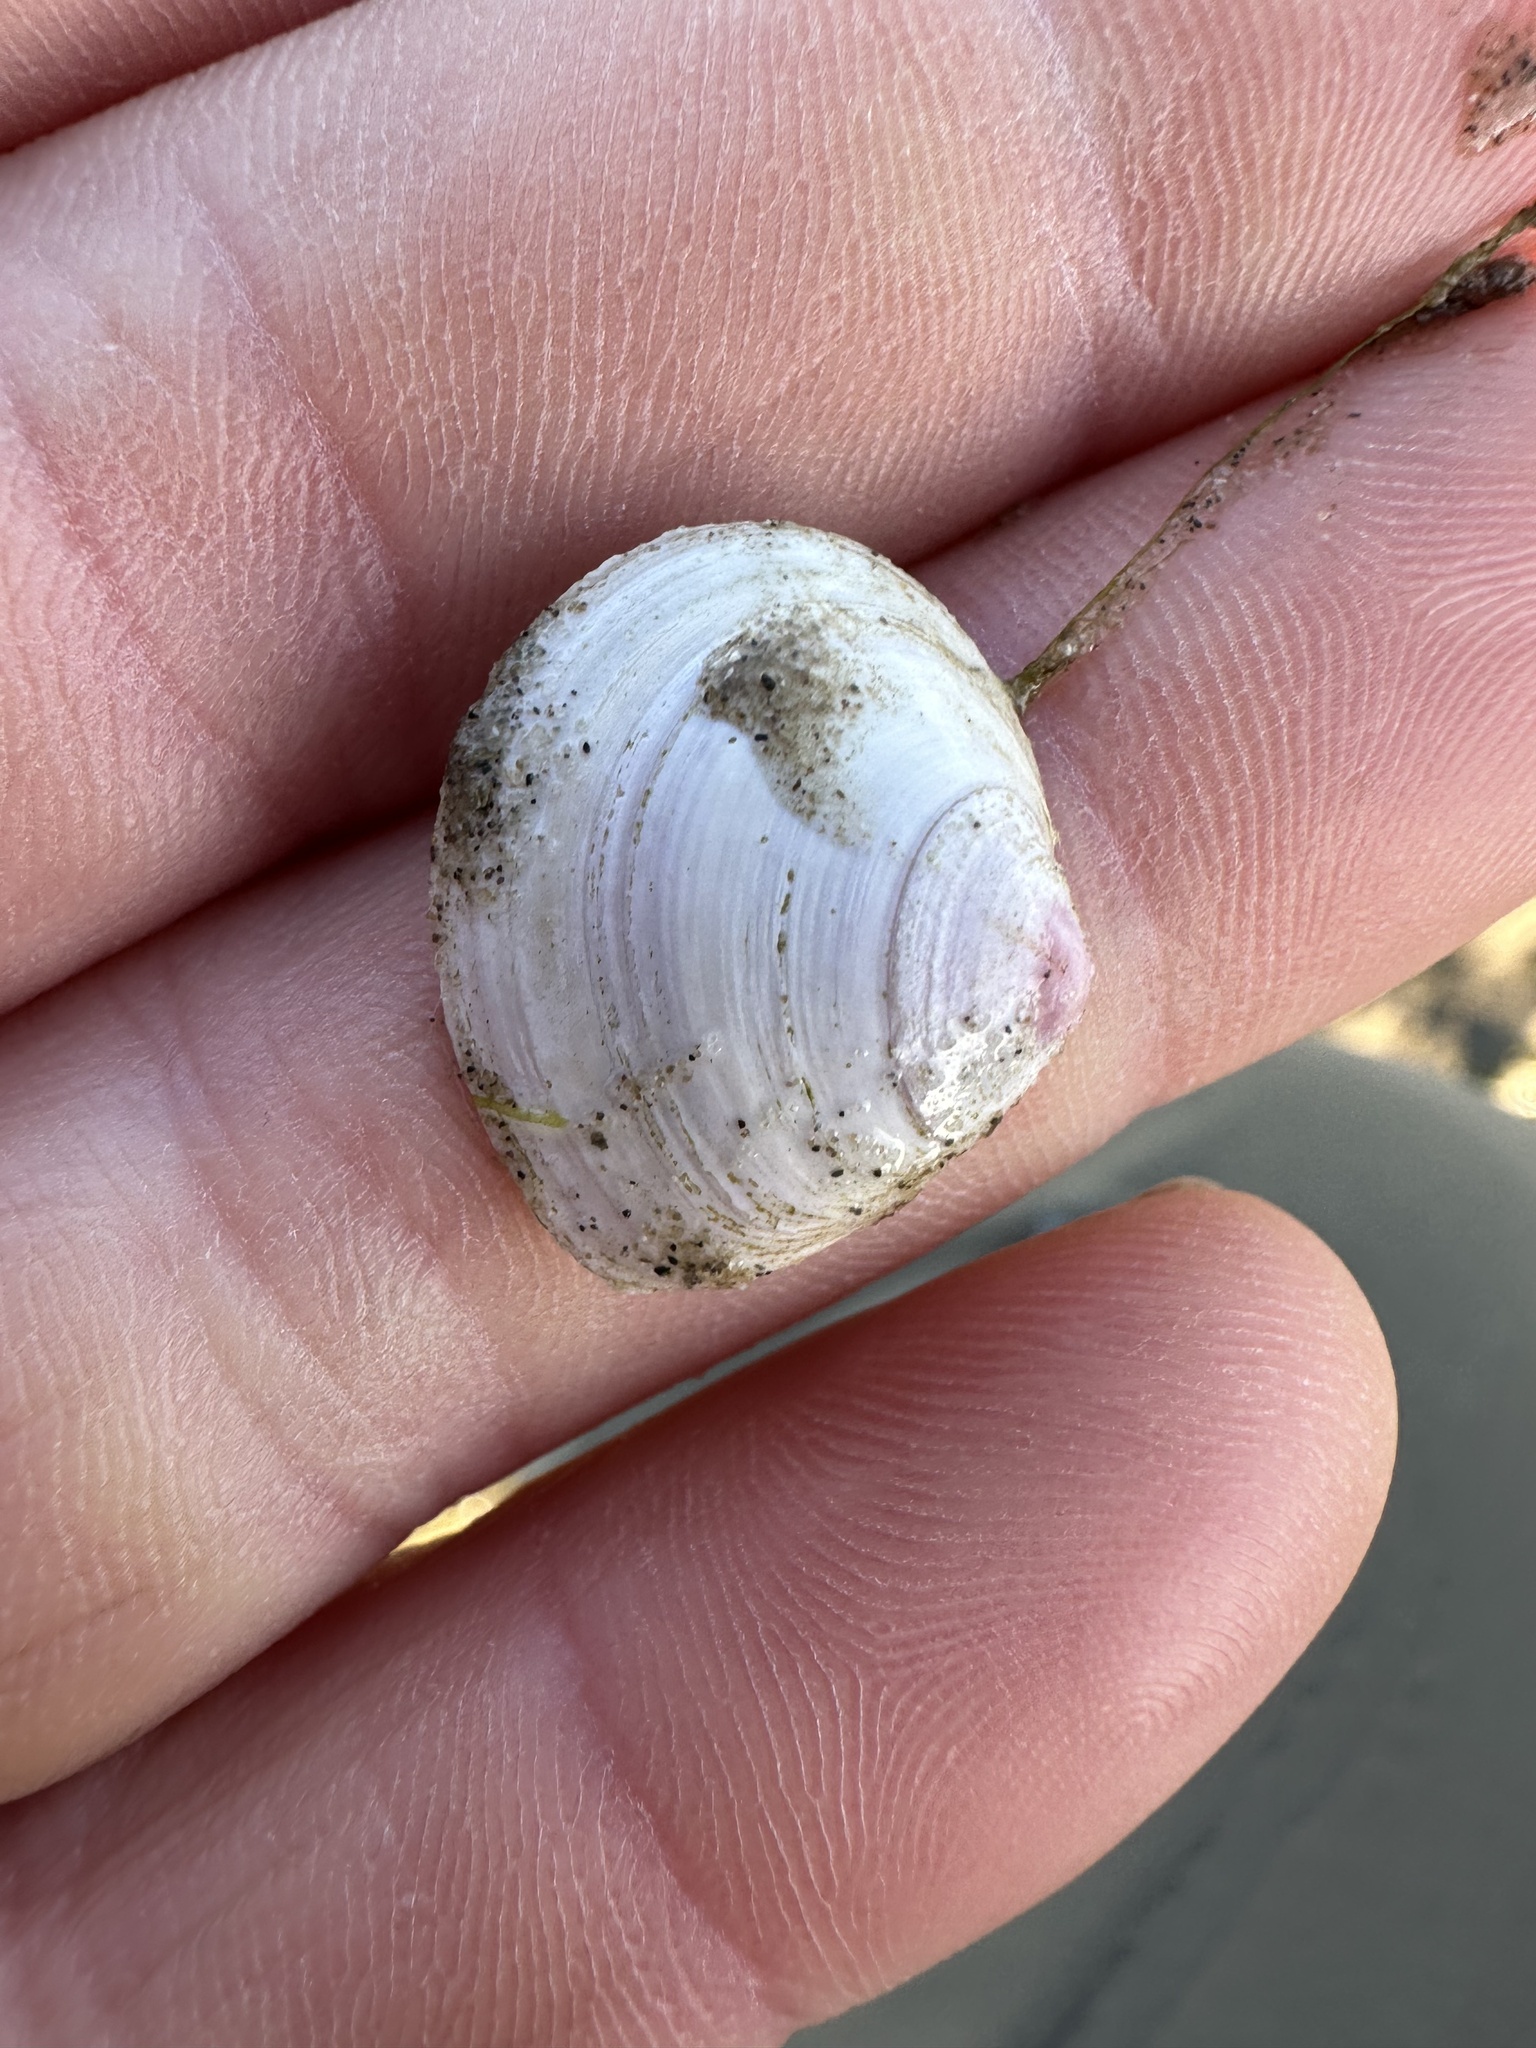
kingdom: Animalia
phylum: Mollusca
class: Bivalvia
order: Cardiida
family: Tellinidae
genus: Macoma
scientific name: Macoma balthica
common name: Baltic tellin
